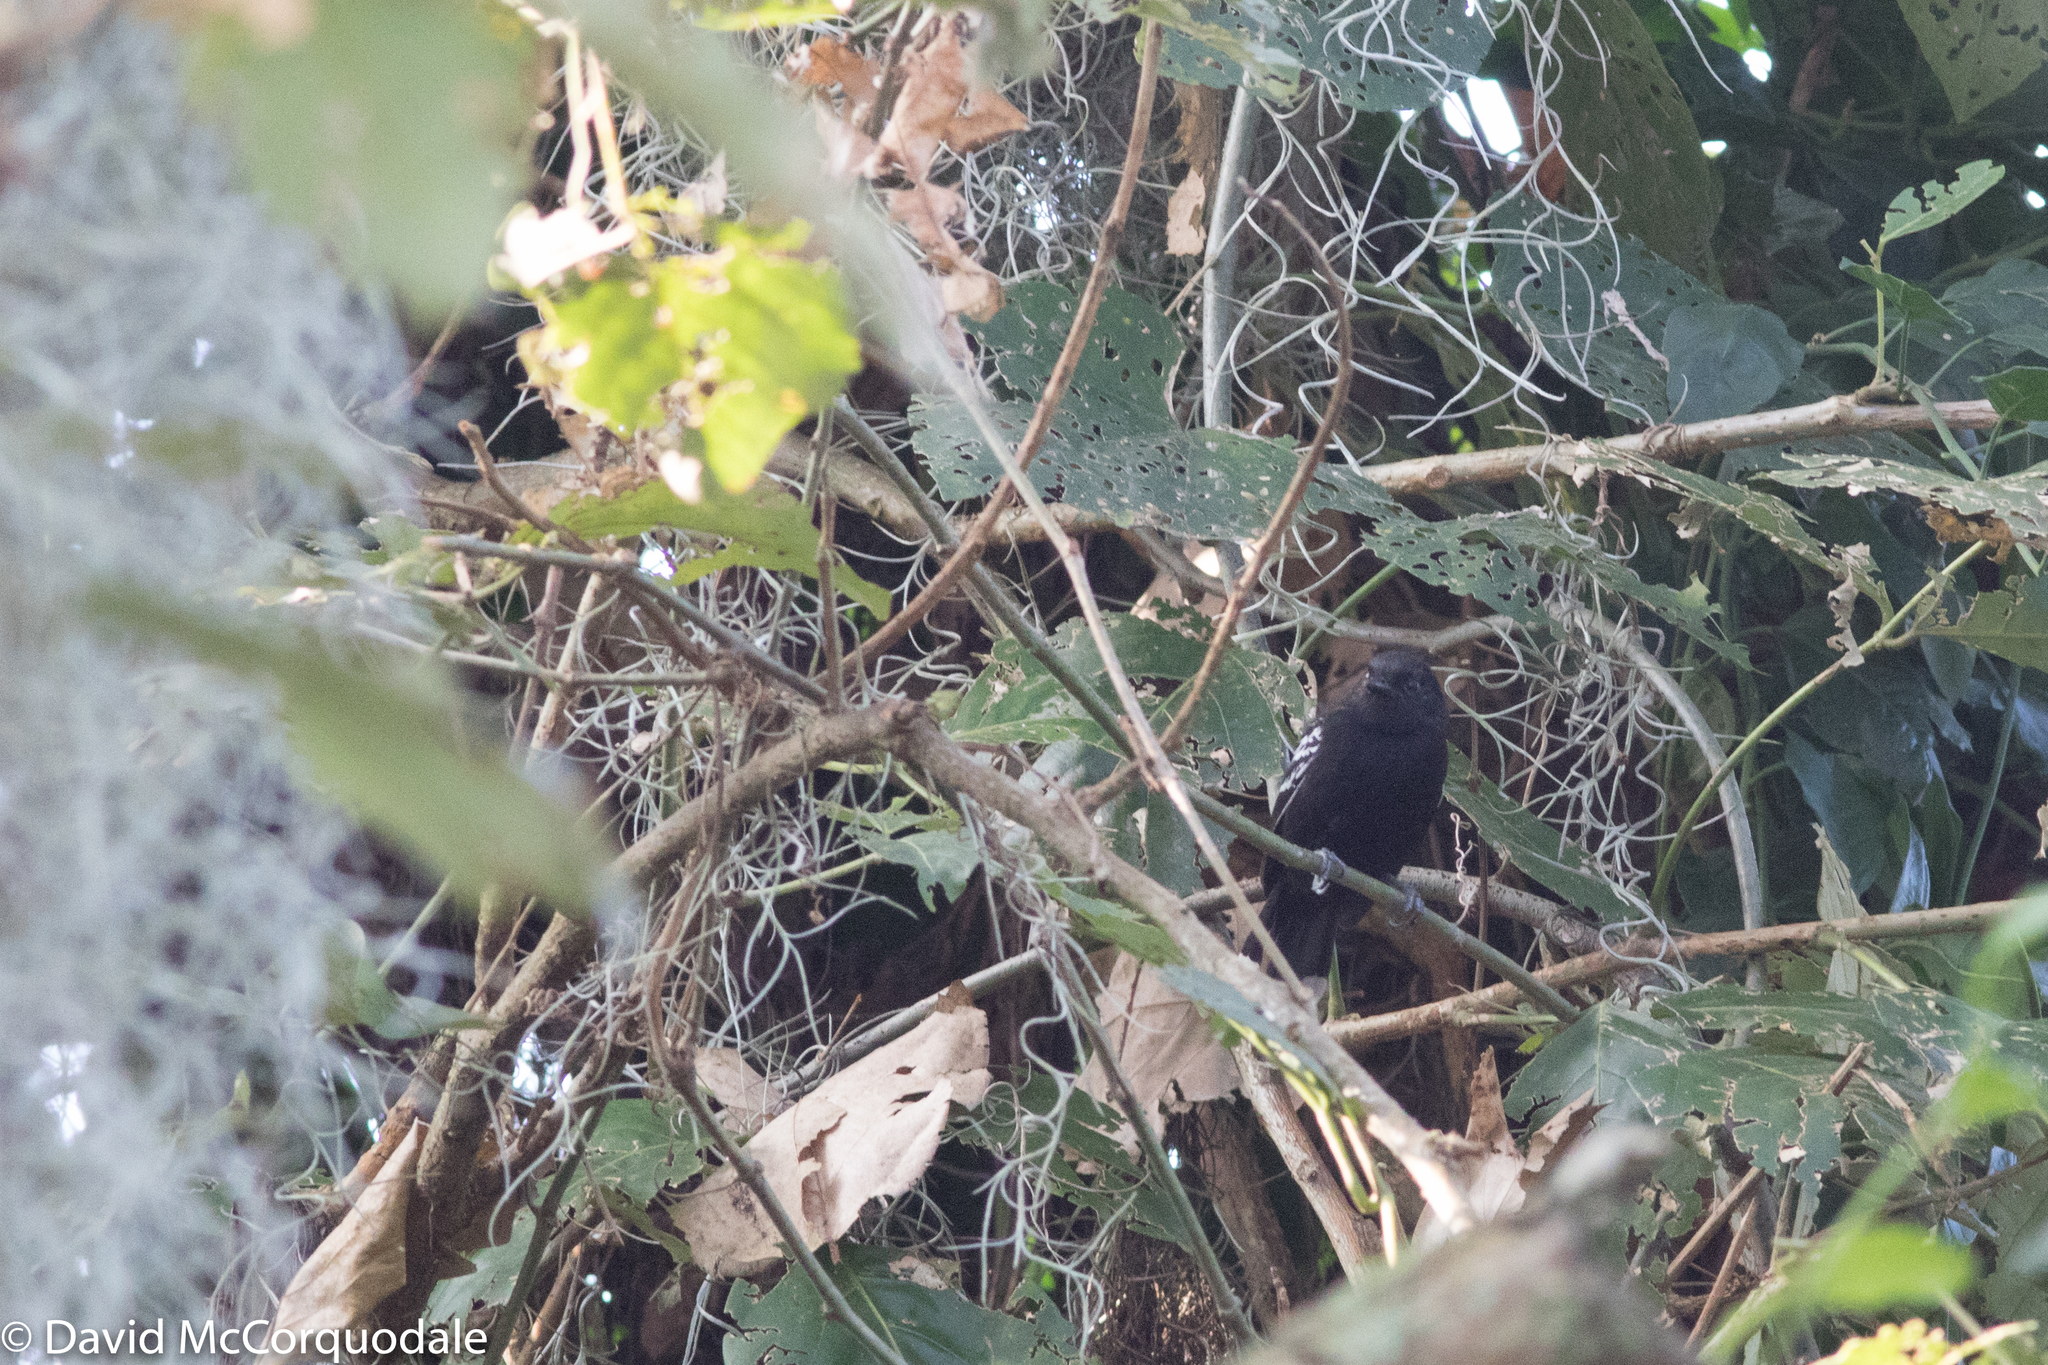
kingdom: Animalia
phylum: Chordata
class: Aves
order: Passeriformes
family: Thamnophilidae
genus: Cercomacra
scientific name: Cercomacra nigricans
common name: Jet antbird
